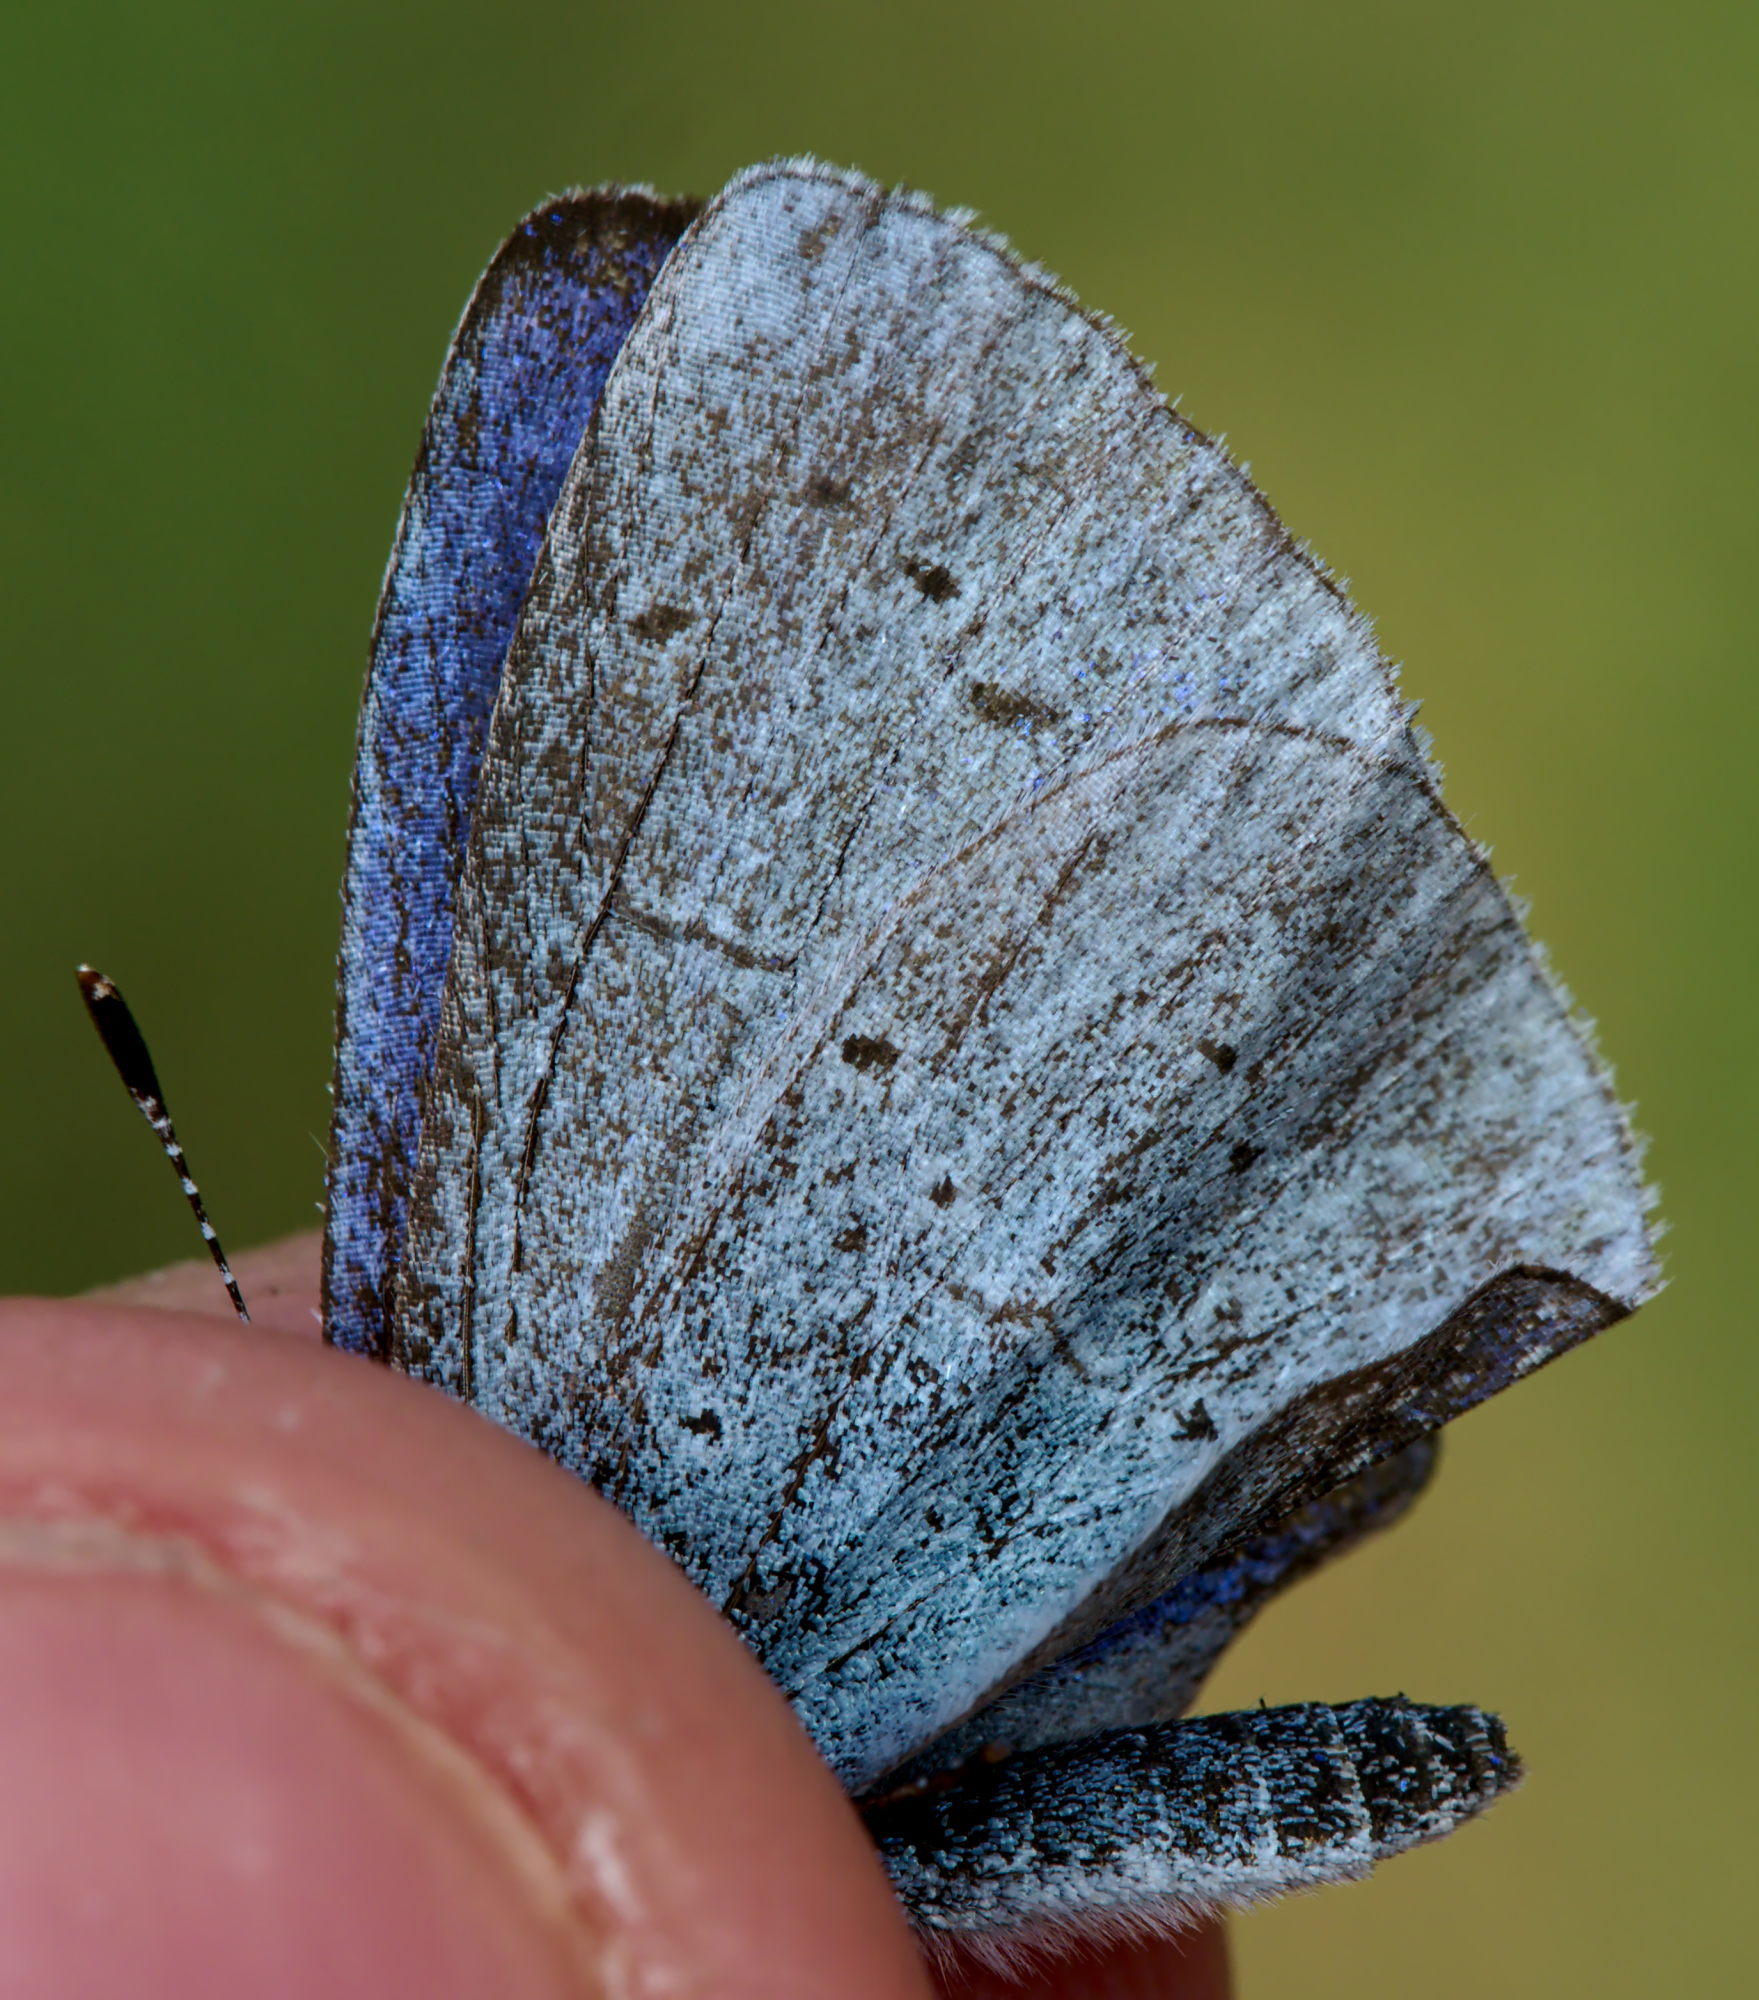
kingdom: Animalia
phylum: Arthropoda
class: Insecta
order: Lepidoptera
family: Lycaenidae
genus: Celastrina
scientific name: Celastrina argiolus
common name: Holly blue
